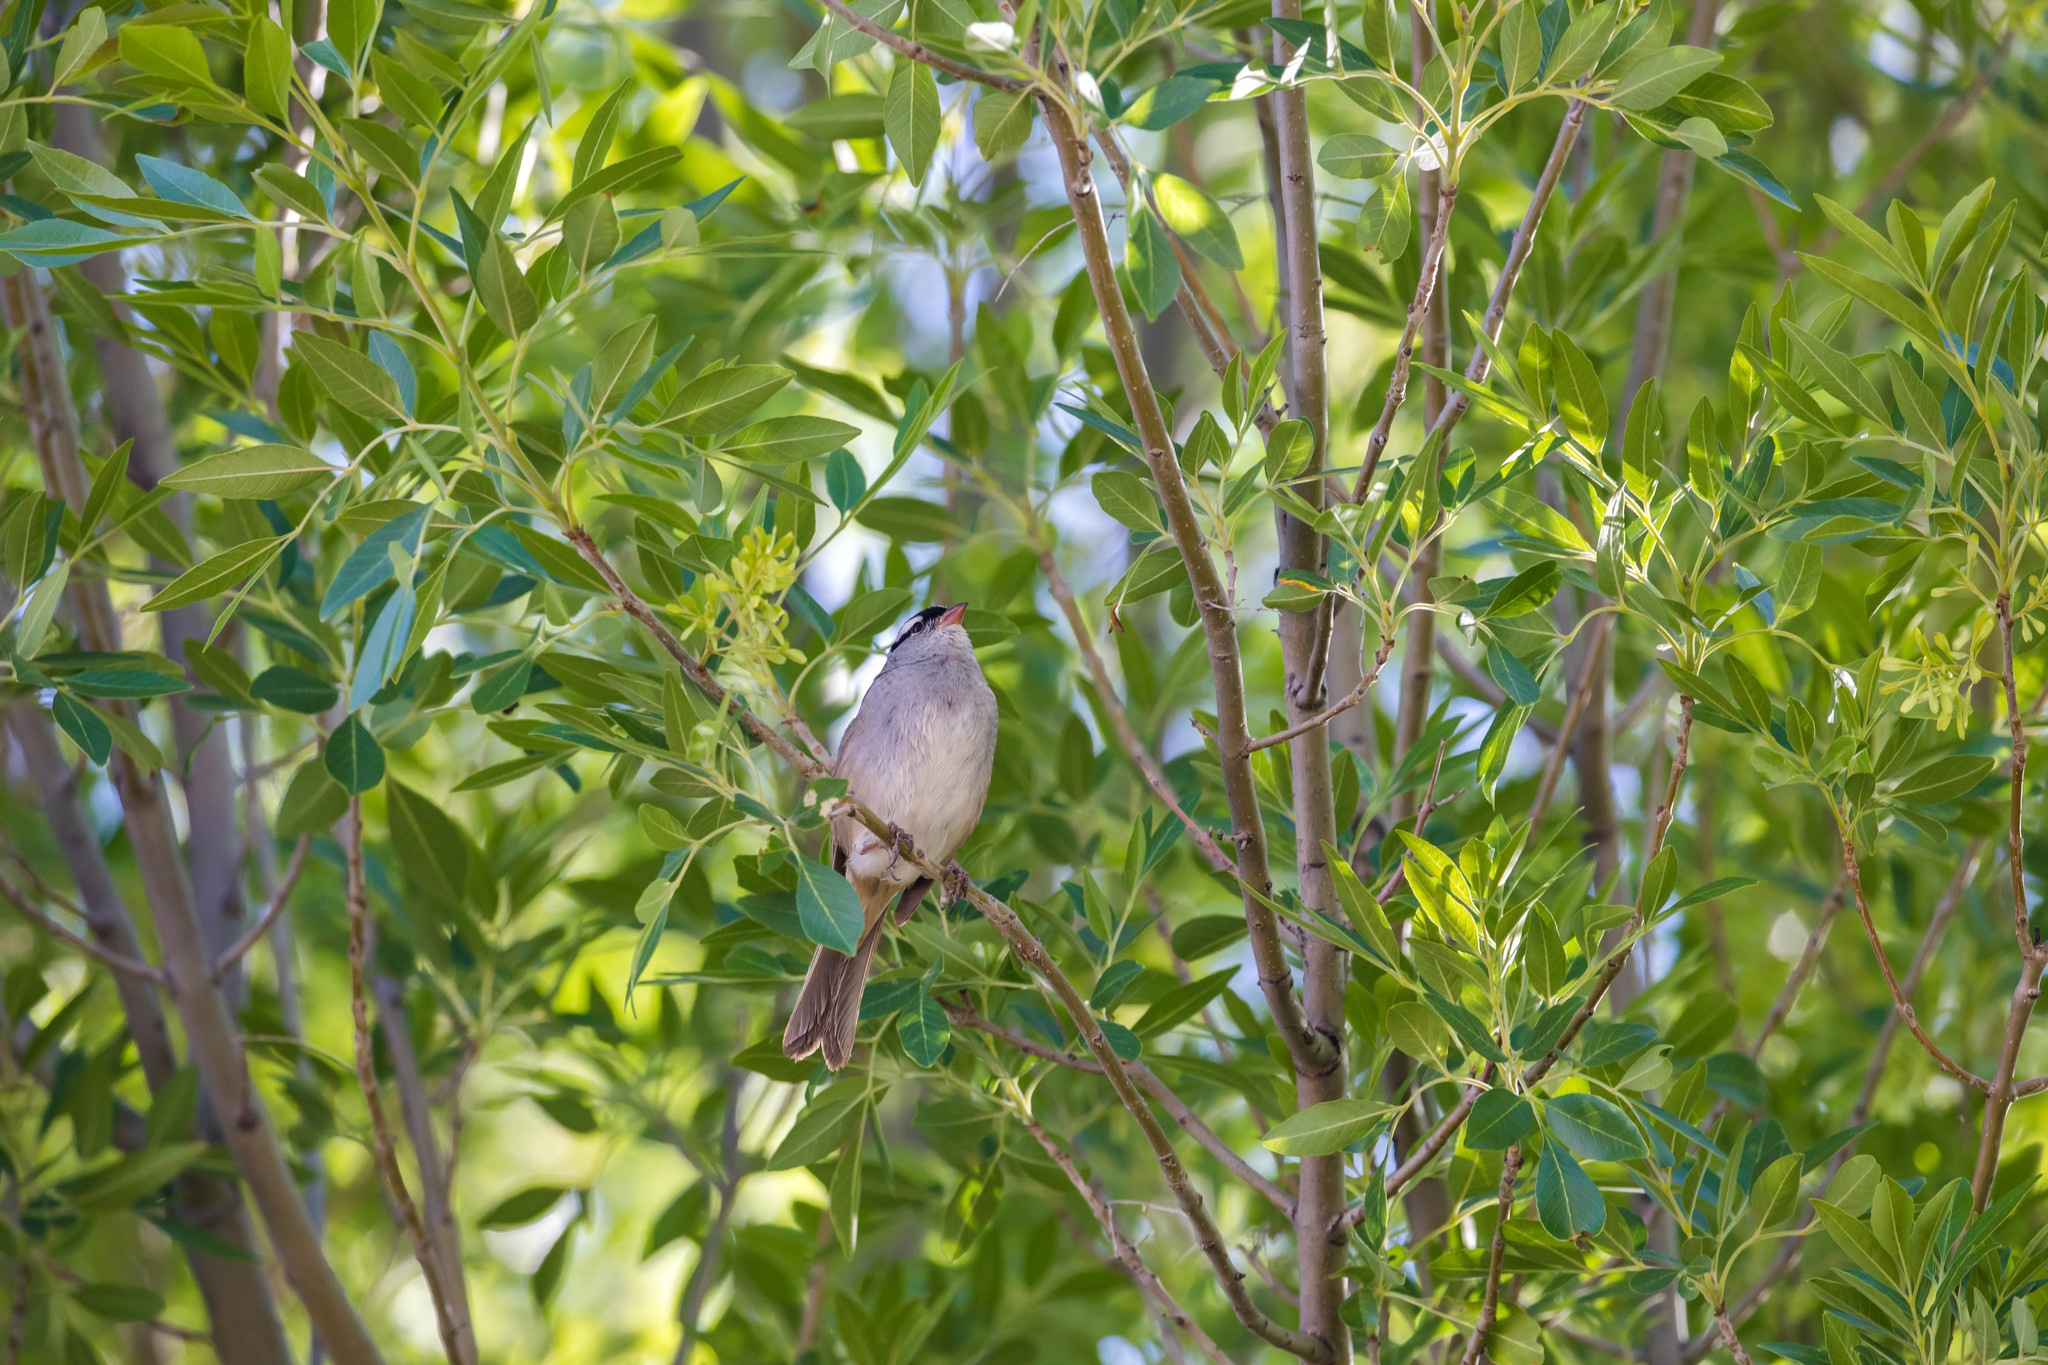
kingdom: Animalia
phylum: Chordata
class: Aves
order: Passeriformes
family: Passerellidae
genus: Zonotrichia
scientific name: Zonotrichia leucophrys
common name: White-crowned sparrow
